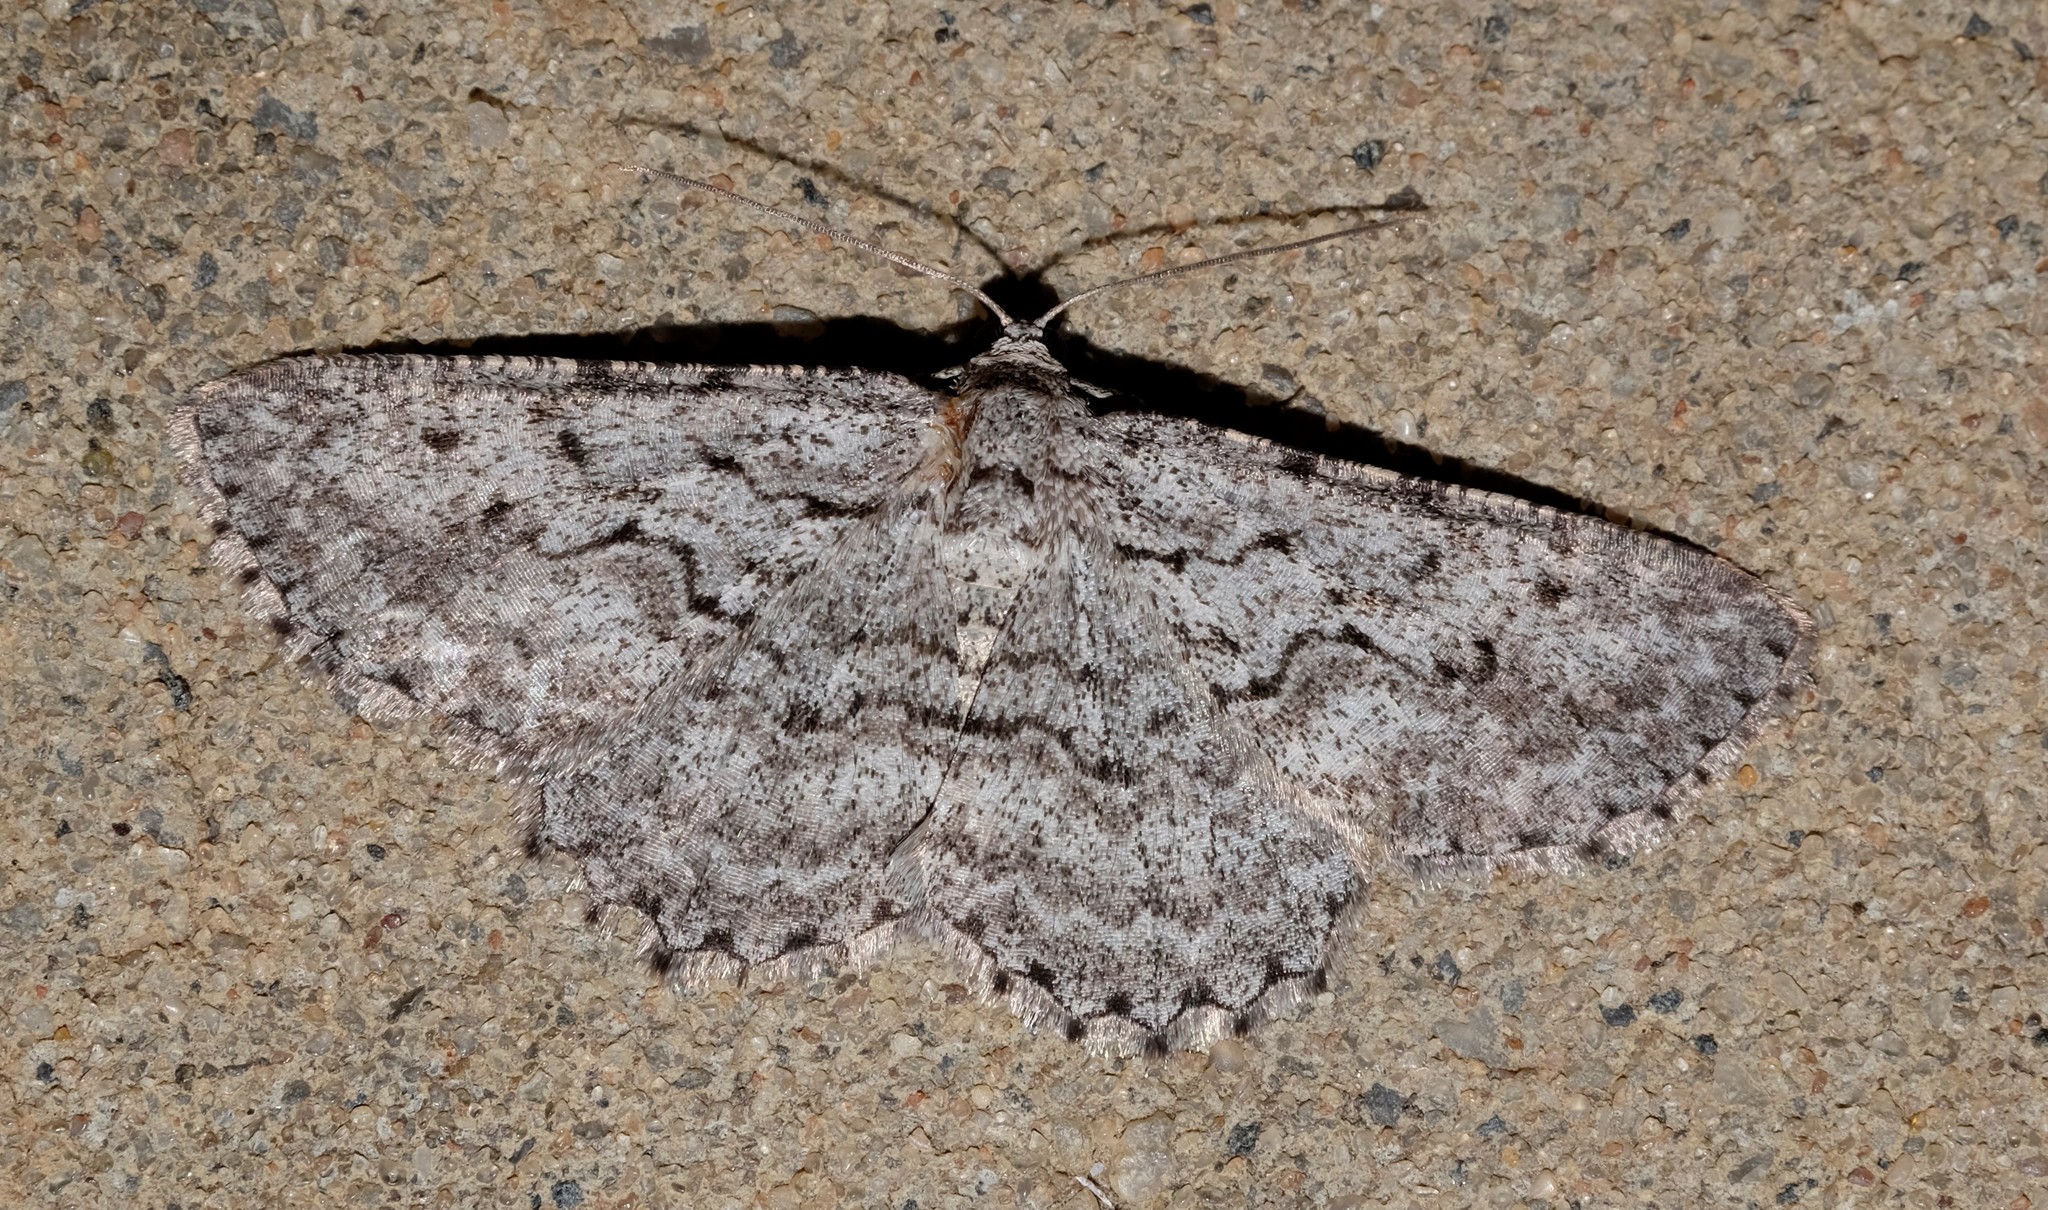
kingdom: Animalia
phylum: Arthropoda
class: Insecta
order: Lepidoptera
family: Geometridae
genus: Psilosticha
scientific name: Psilosticha absorpta
